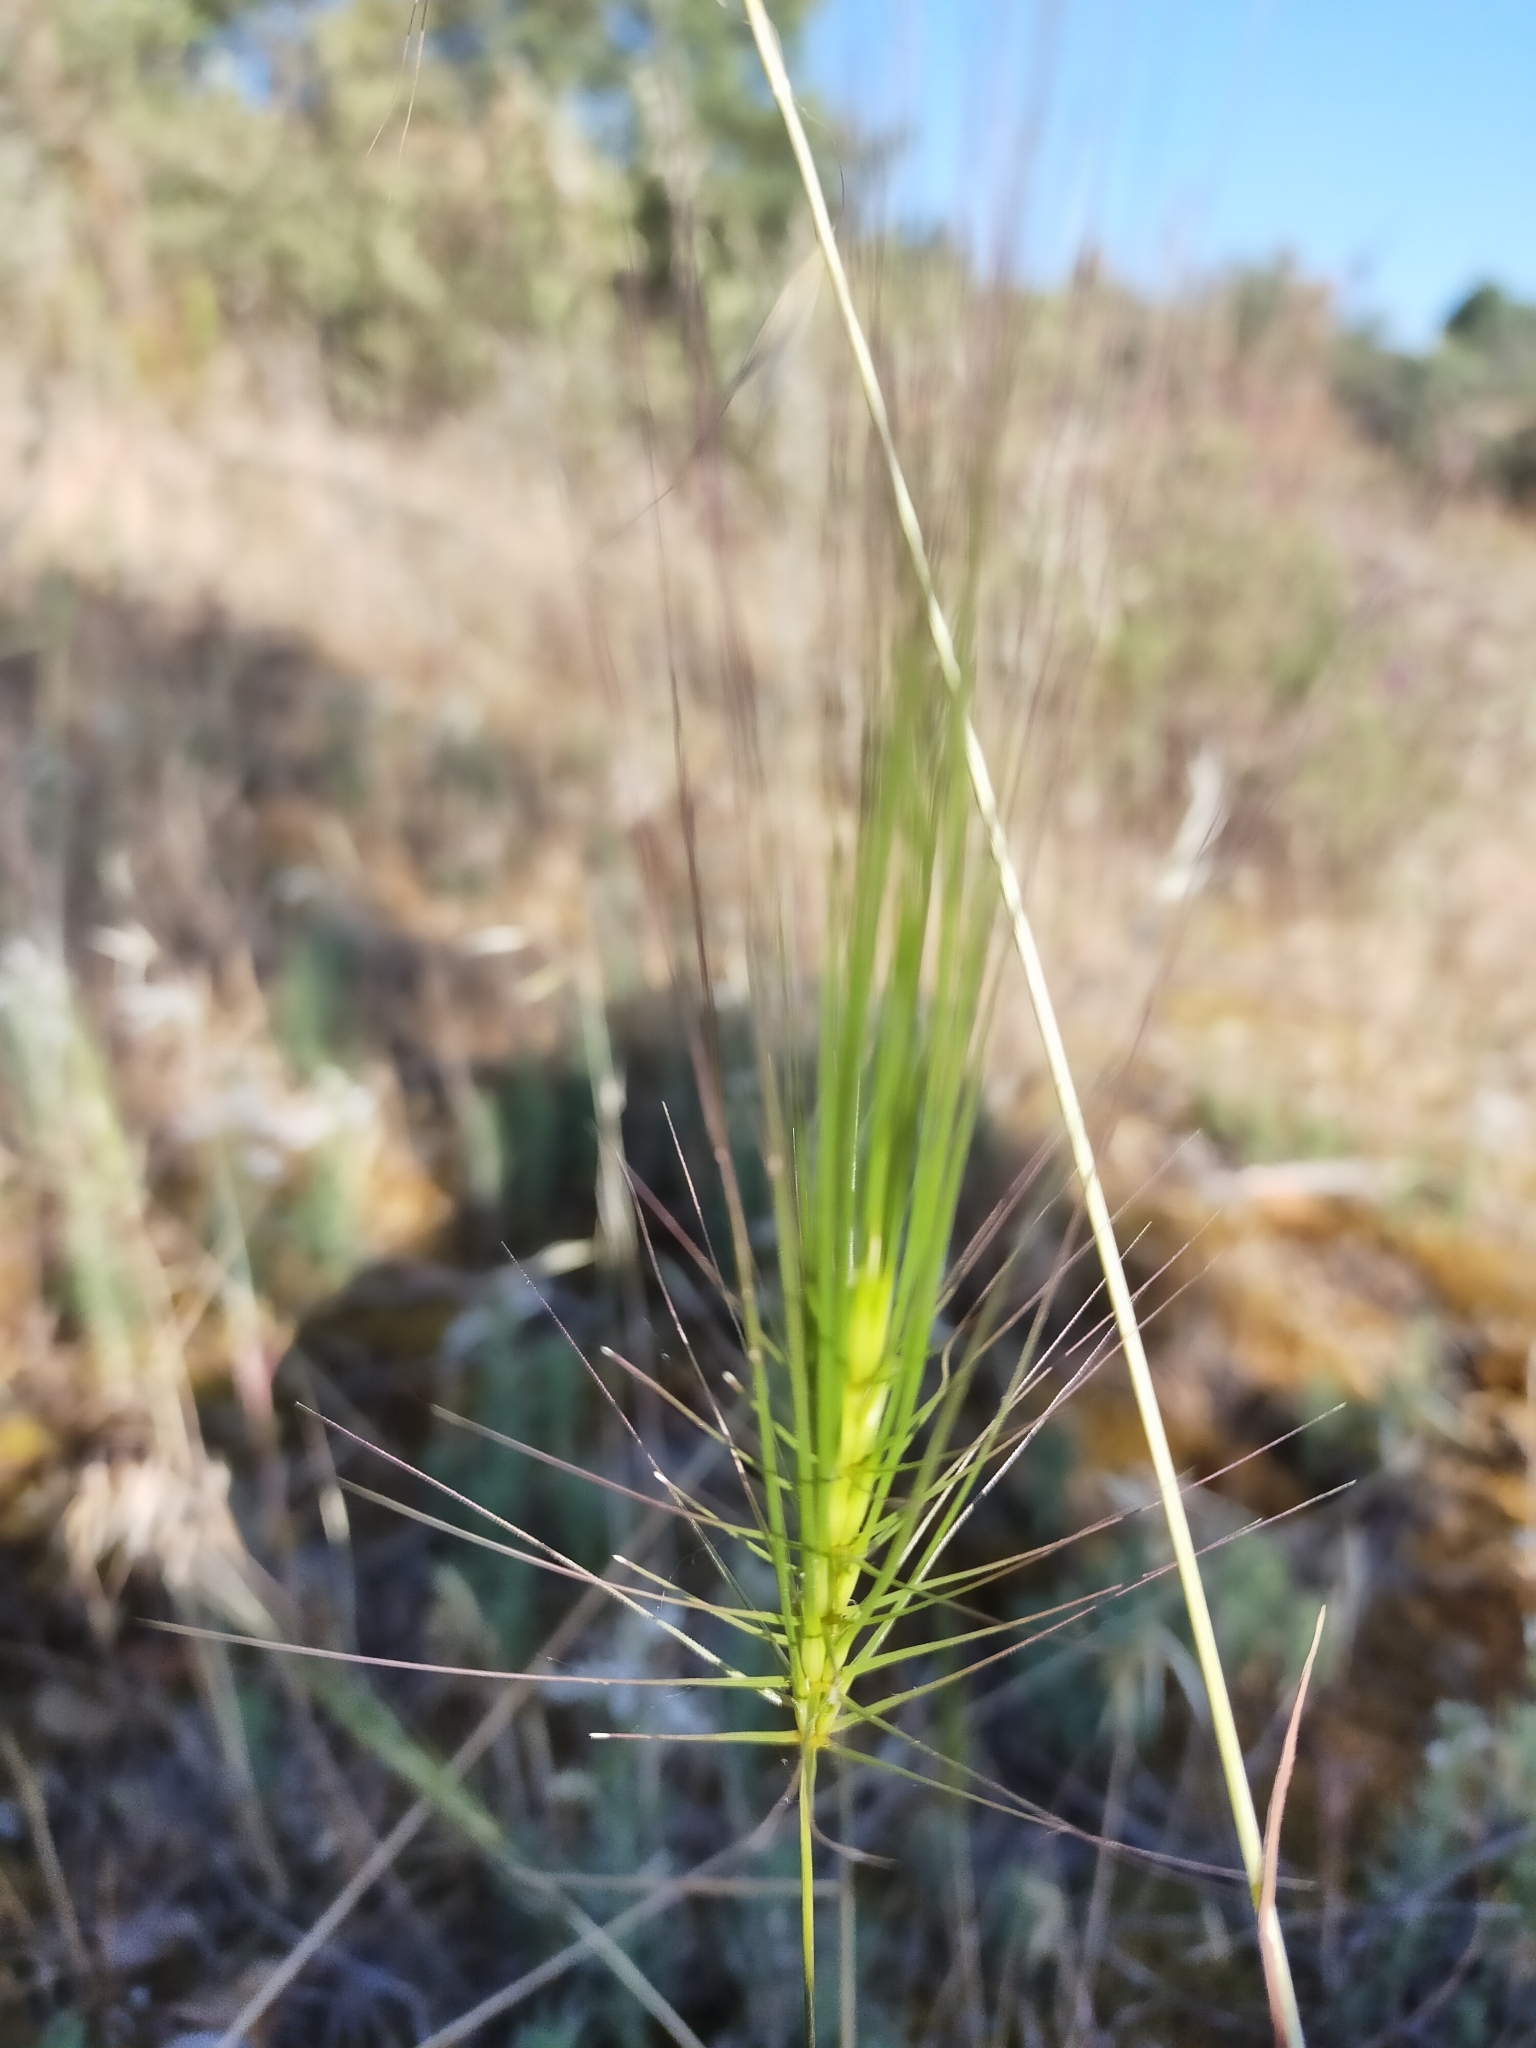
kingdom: Plantae
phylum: Tracheophyta
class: Liliopsida
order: Poales
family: Poaceae
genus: Taeniatherum
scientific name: Taeniatherum caput-medusae
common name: Medusahead
